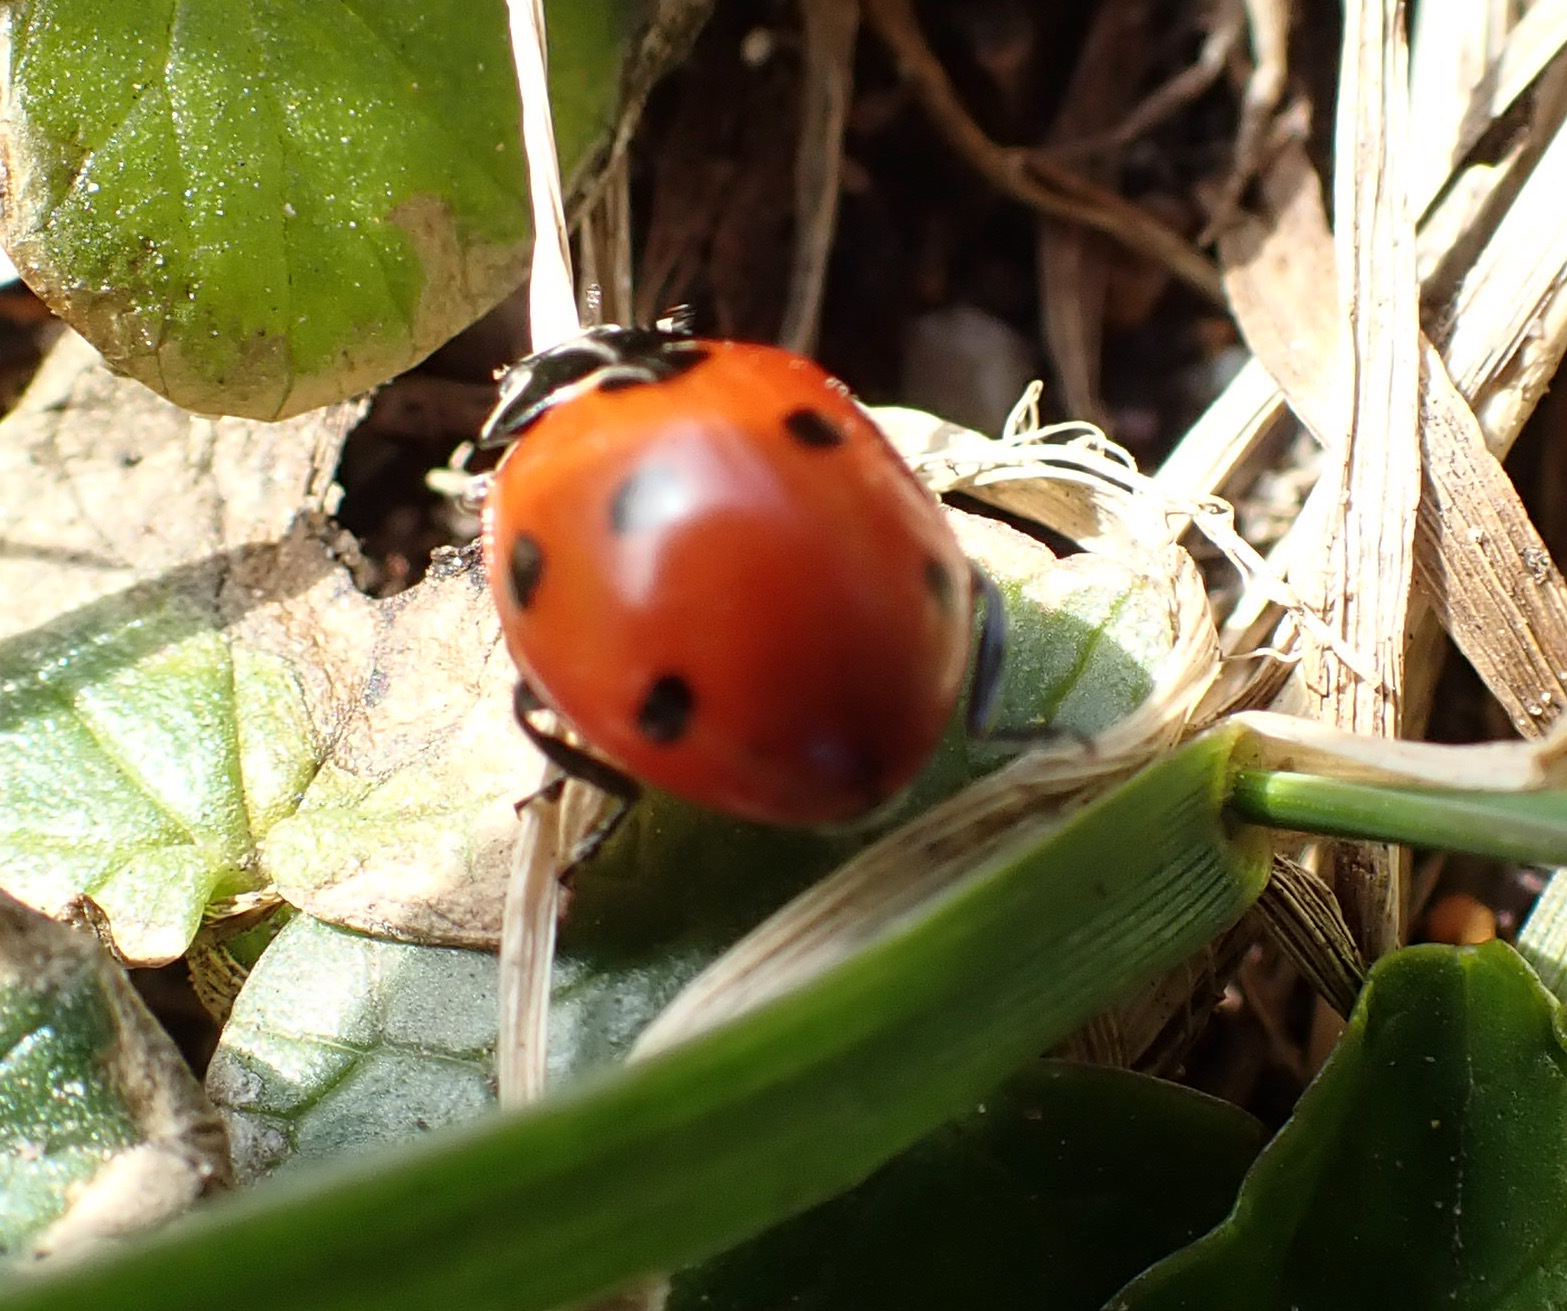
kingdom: Animalia
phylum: Arthropoda
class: Insecta
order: Coleoptera
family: Coccinellidae
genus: Coccinella
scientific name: Coccinella septempunctata
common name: Sevenspotted lady beetle
